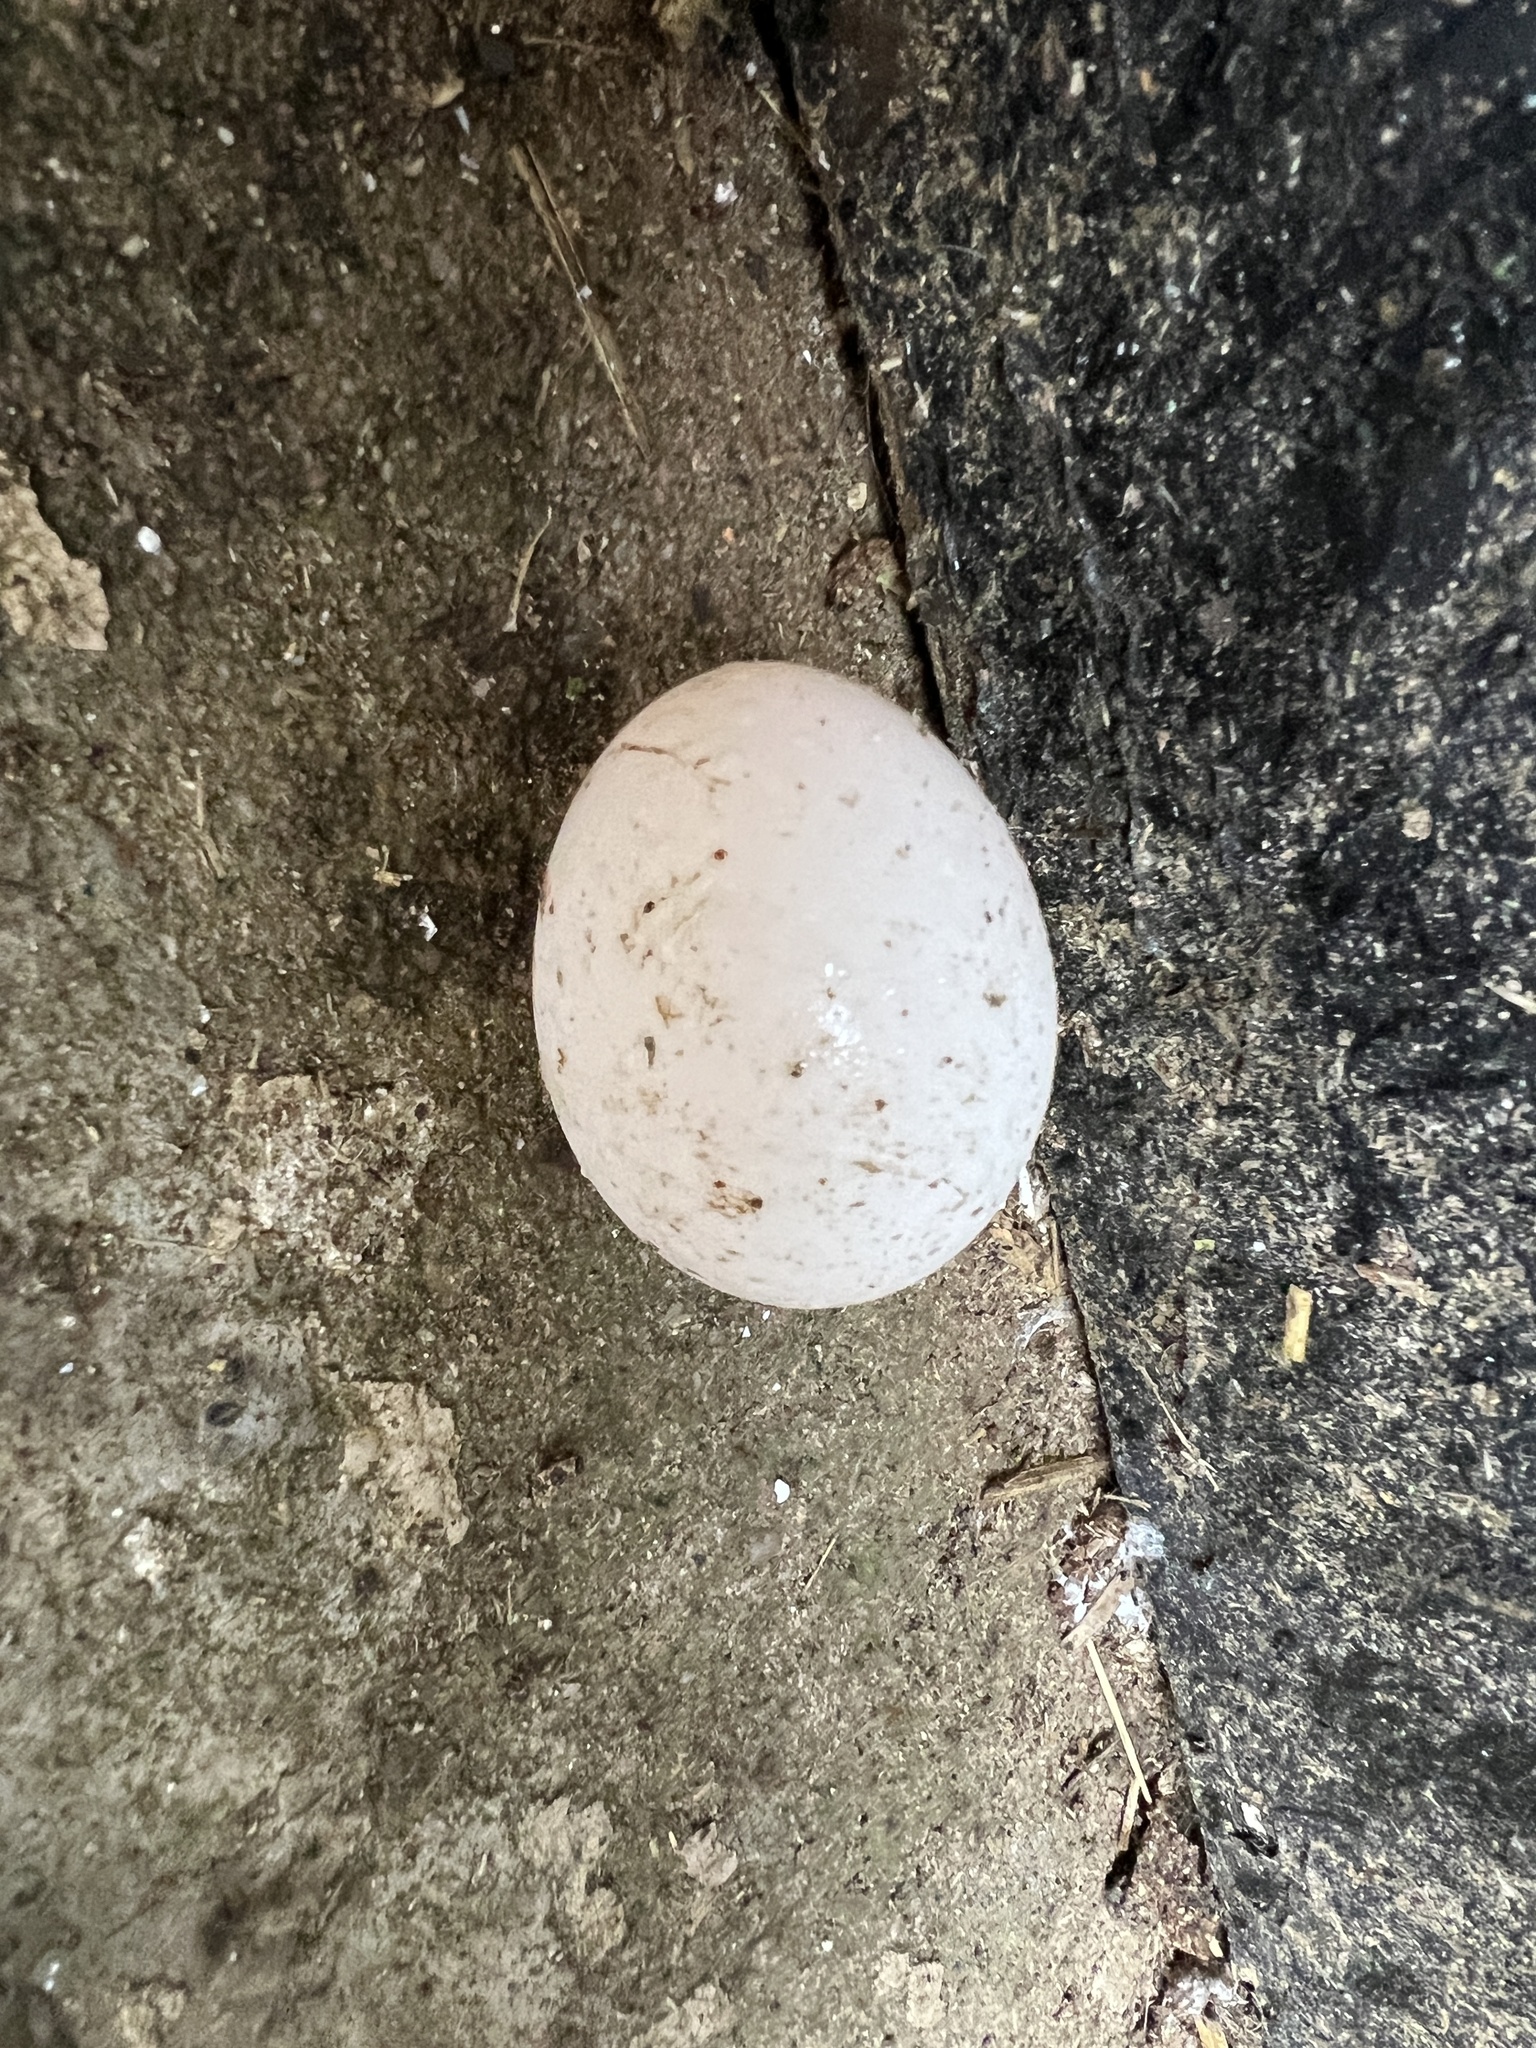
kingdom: Animalia
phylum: Chordata
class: Aves
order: Columbiformes
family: Columbidae
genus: Columba
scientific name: Columba livia
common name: Rock pigeon
